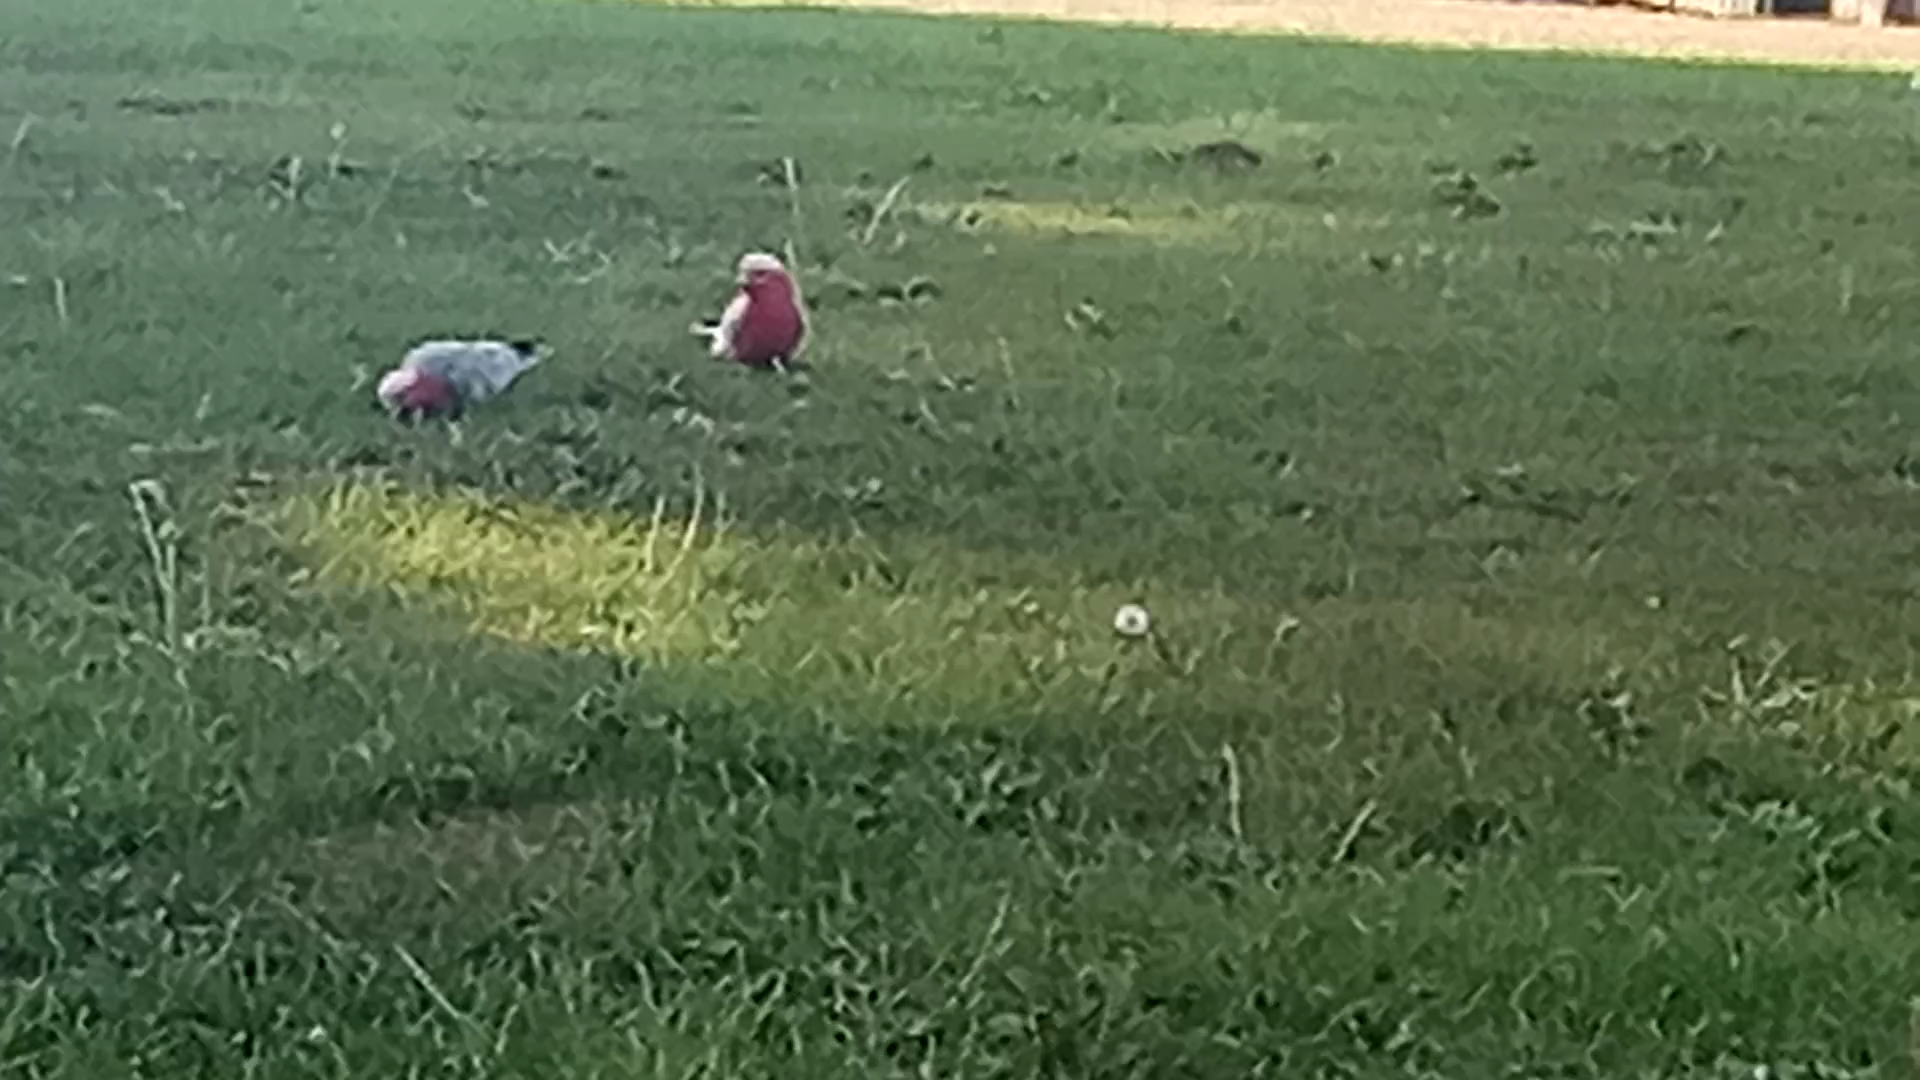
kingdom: Animalia
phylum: Chordata
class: Aves
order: Psittaciformes
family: Psittacidae
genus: Eolophus
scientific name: Eolophus roseicapilla
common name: Galah
